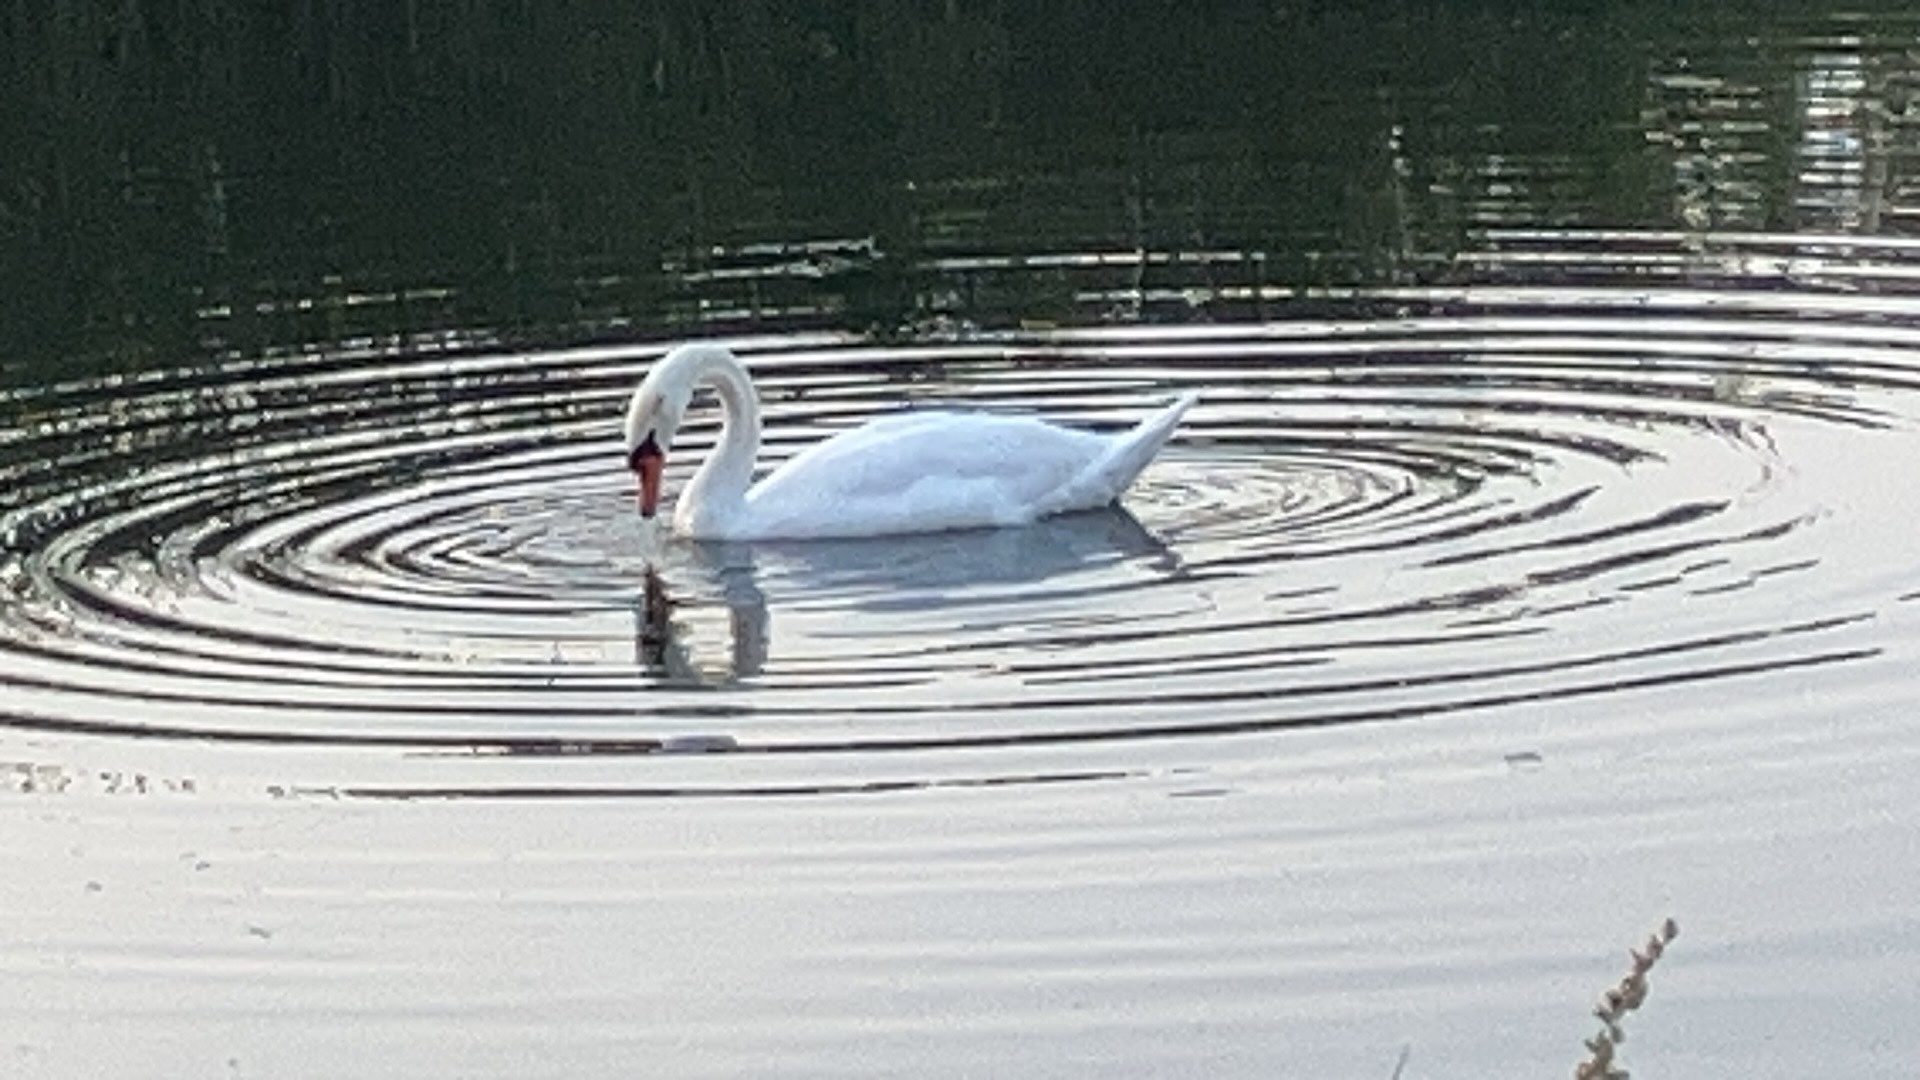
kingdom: Animalia
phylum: Chordata
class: Aves
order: Anseriformes
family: Anatidae
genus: Cygnus
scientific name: Cygnus olor
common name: Mute swan
